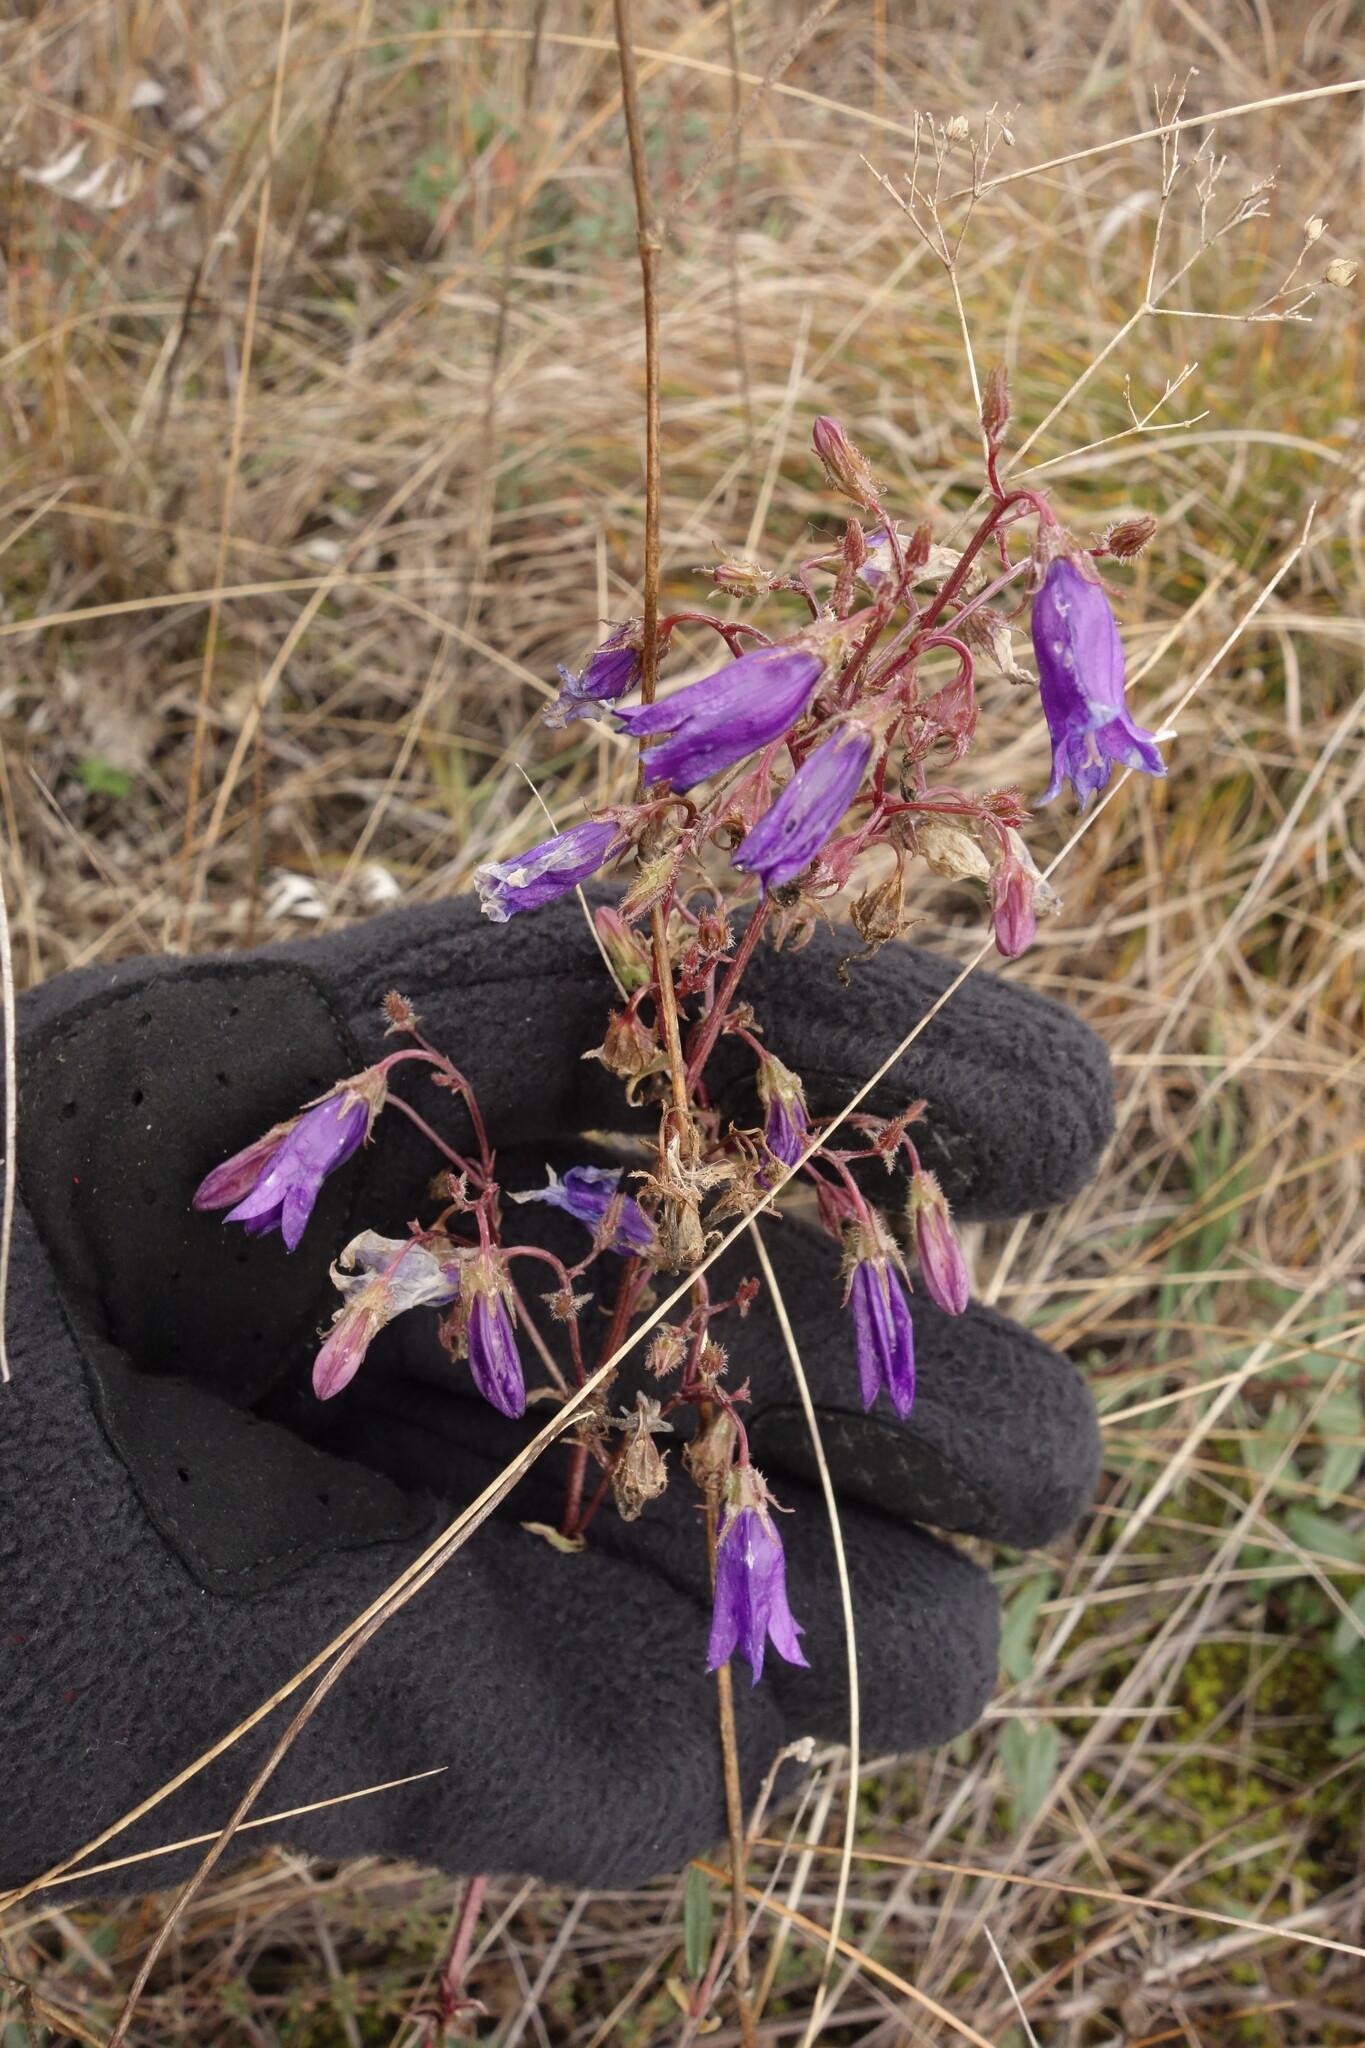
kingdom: Plantae
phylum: Tracheophyta
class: Magnoliopsida
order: Asterales
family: Campanulaceae
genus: Campanula
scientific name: Campanula sibirica
